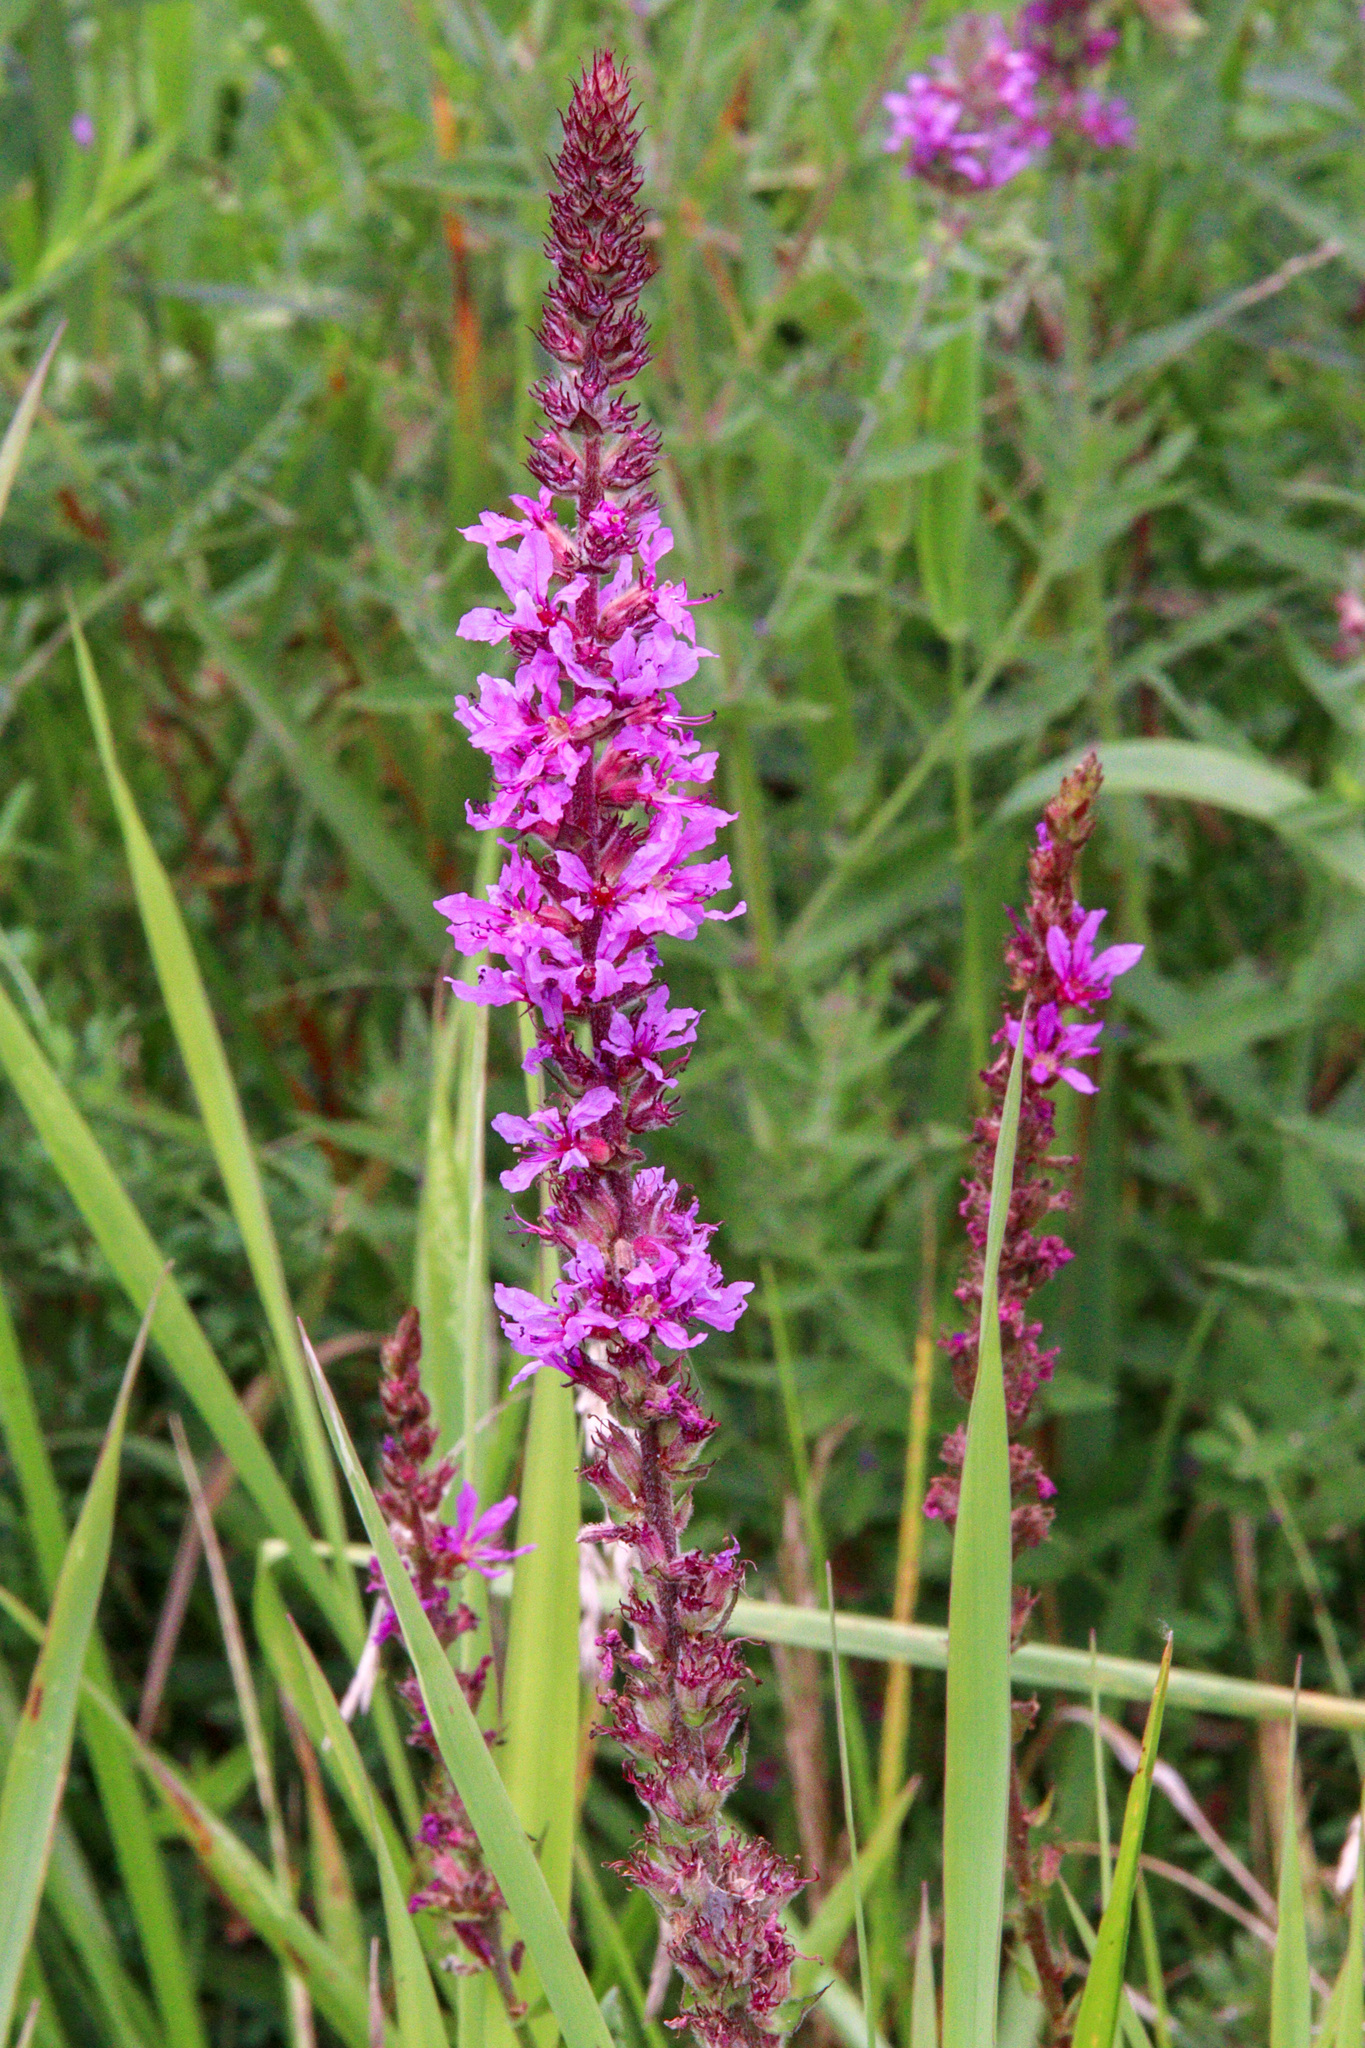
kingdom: Plantae
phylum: Tracheophyta
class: Magnoliopsida
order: Myrtales
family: Lythraceae
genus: Lythrum
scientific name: Lythrum salicaria
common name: Purple loosestrife
